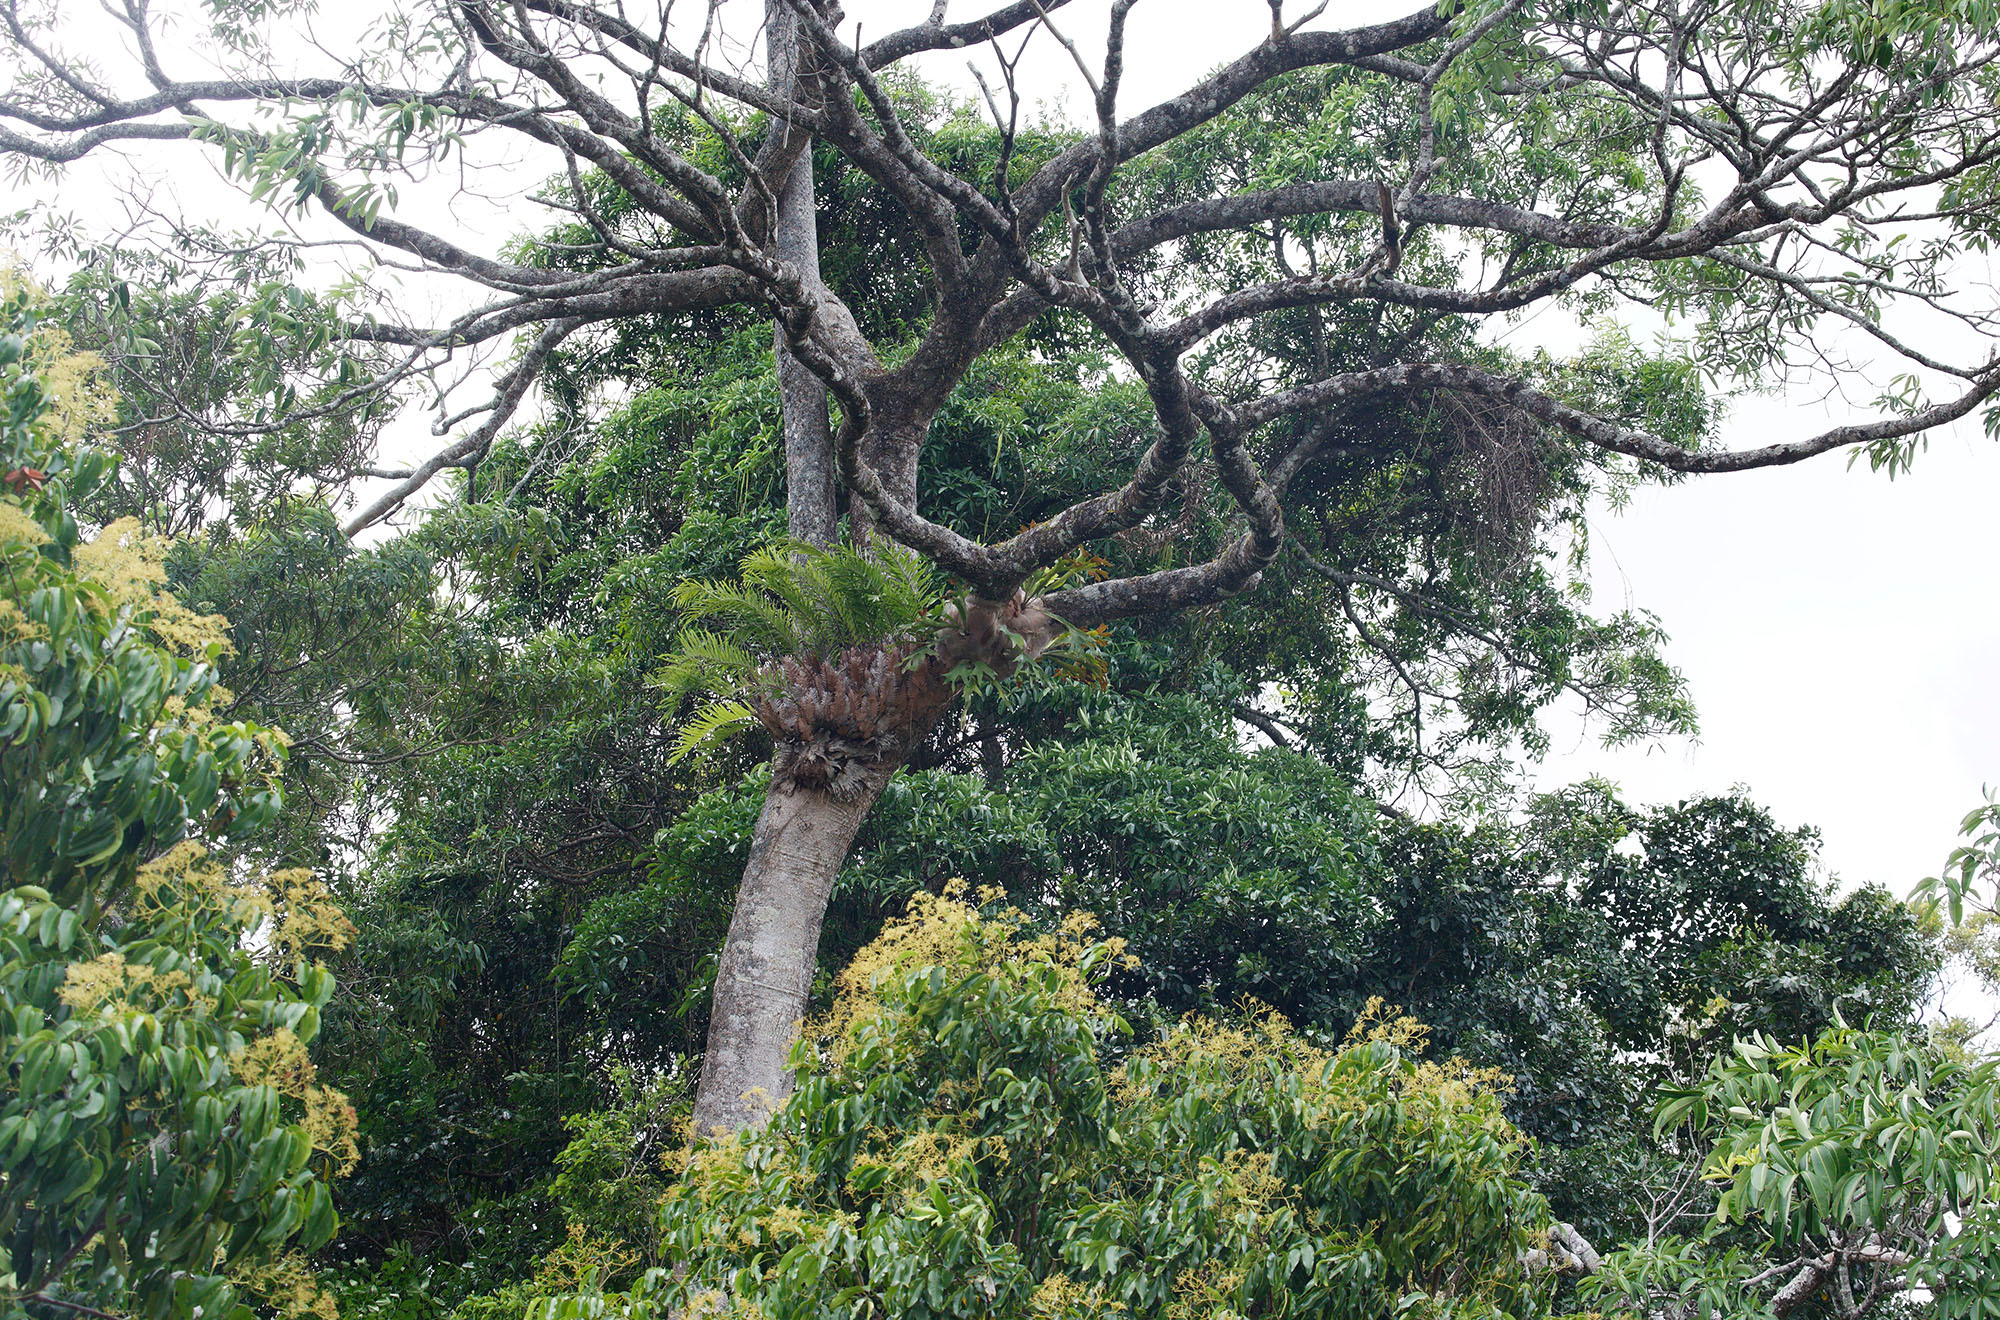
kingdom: Plantae
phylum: Tracheophyta
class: Polypodiopsida
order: Polypodiales
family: Polypodiaceae
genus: Platycerium
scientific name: Platycerium bifurcatum
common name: Elkhorn fern
